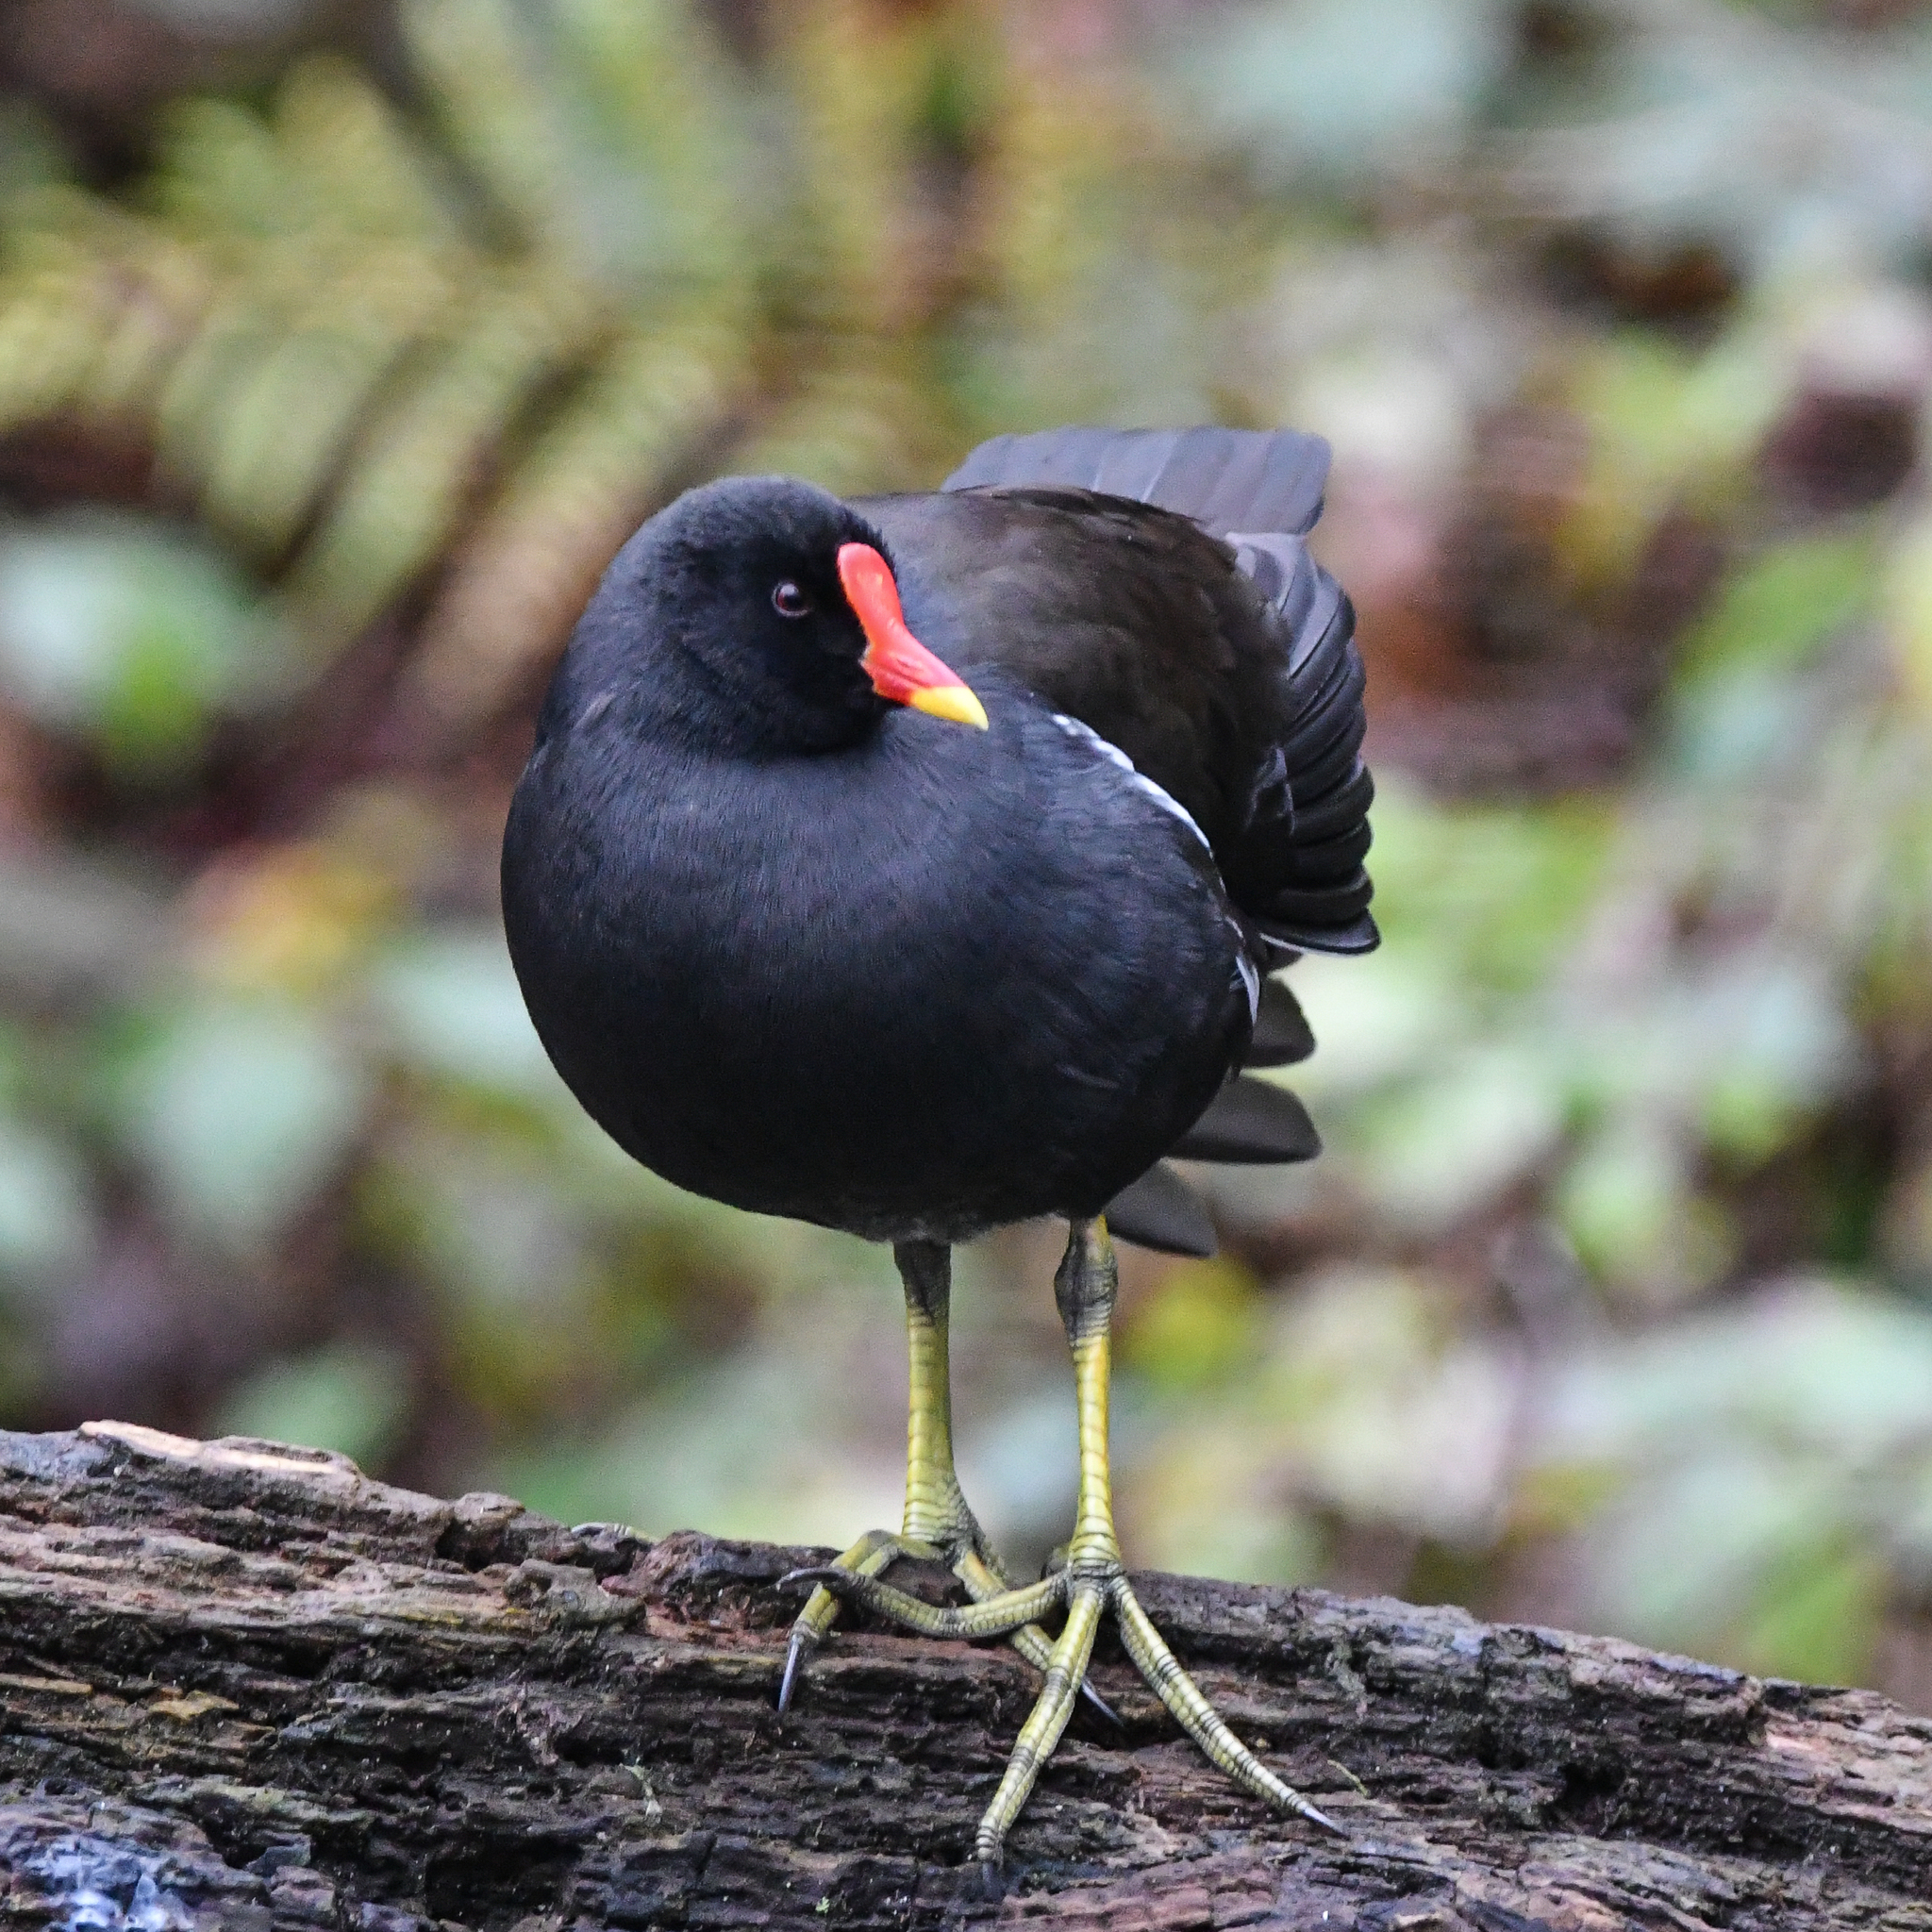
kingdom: Animalia
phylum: Chordata
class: Aves
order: Gruiformes
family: Rallidae
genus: Gallinula
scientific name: Gallinula chloropus
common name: Common moorhen
